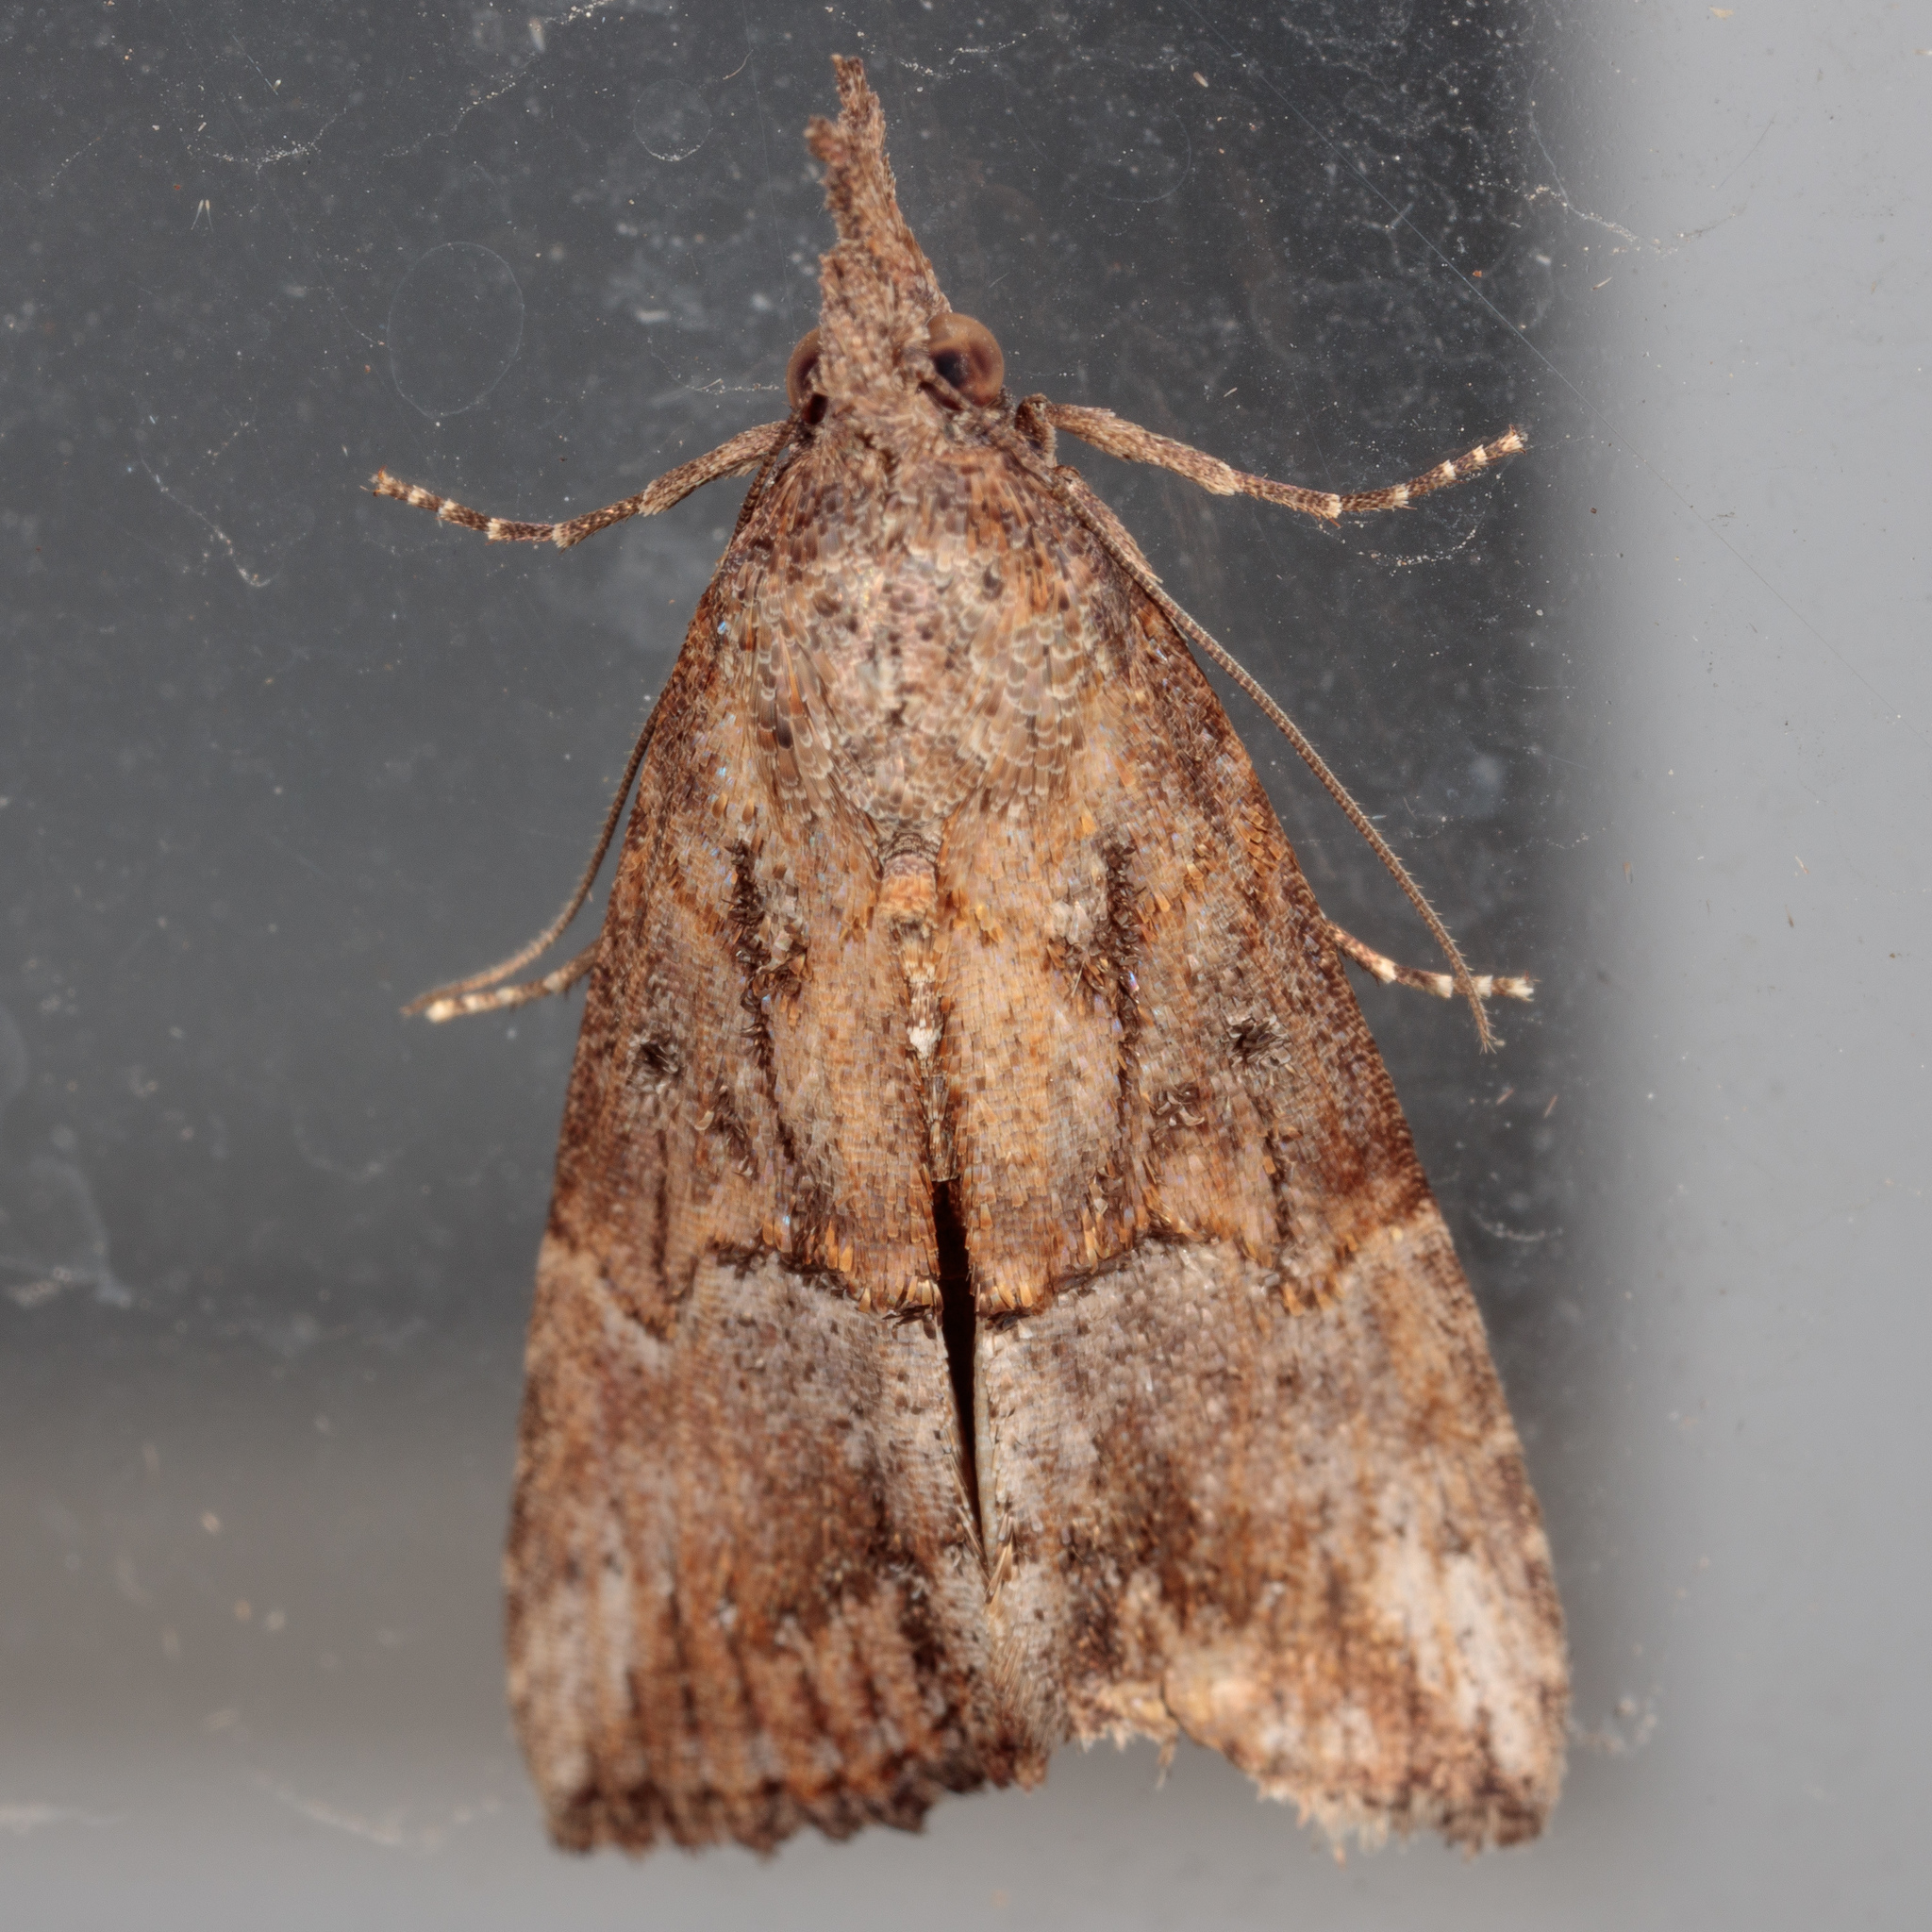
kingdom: Animalia
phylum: Arthropoda
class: Insecta
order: Lepidoptera
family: Erebidae
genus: Hypena
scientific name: Hypena scabra
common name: Green cloverworm
